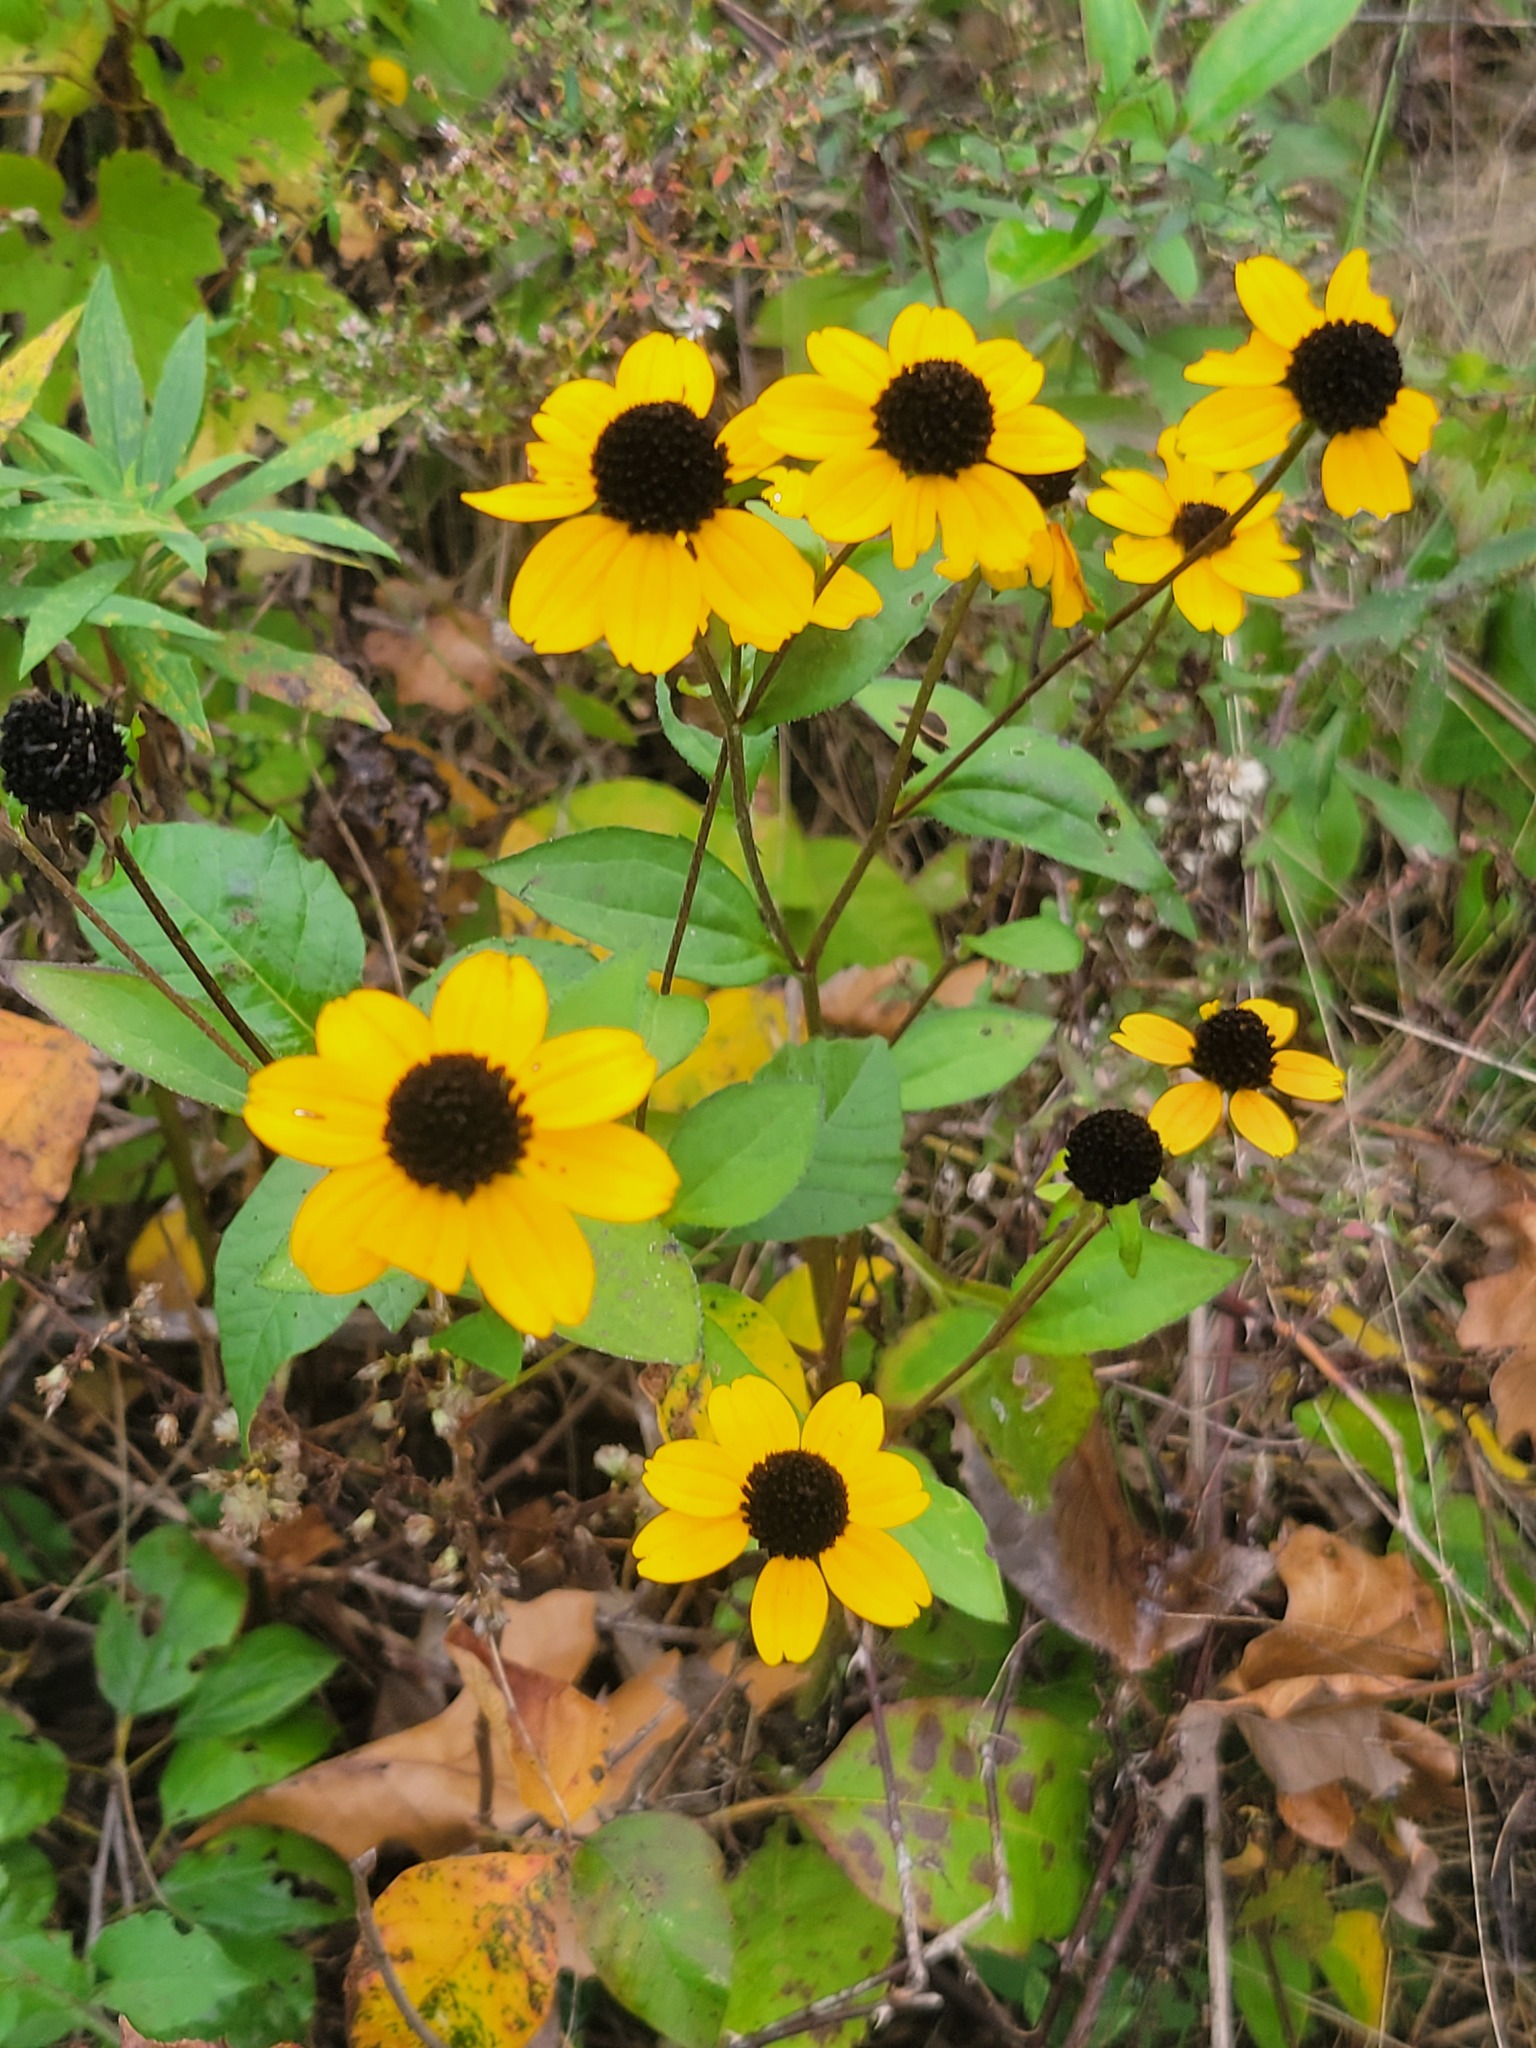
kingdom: Plantae
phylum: Tracheophyta
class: Magnoliopsida
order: Asterales
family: Asteraceae
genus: Rudbeckia
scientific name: Rudbeckia triloba
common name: Thin-leaved coneflower
